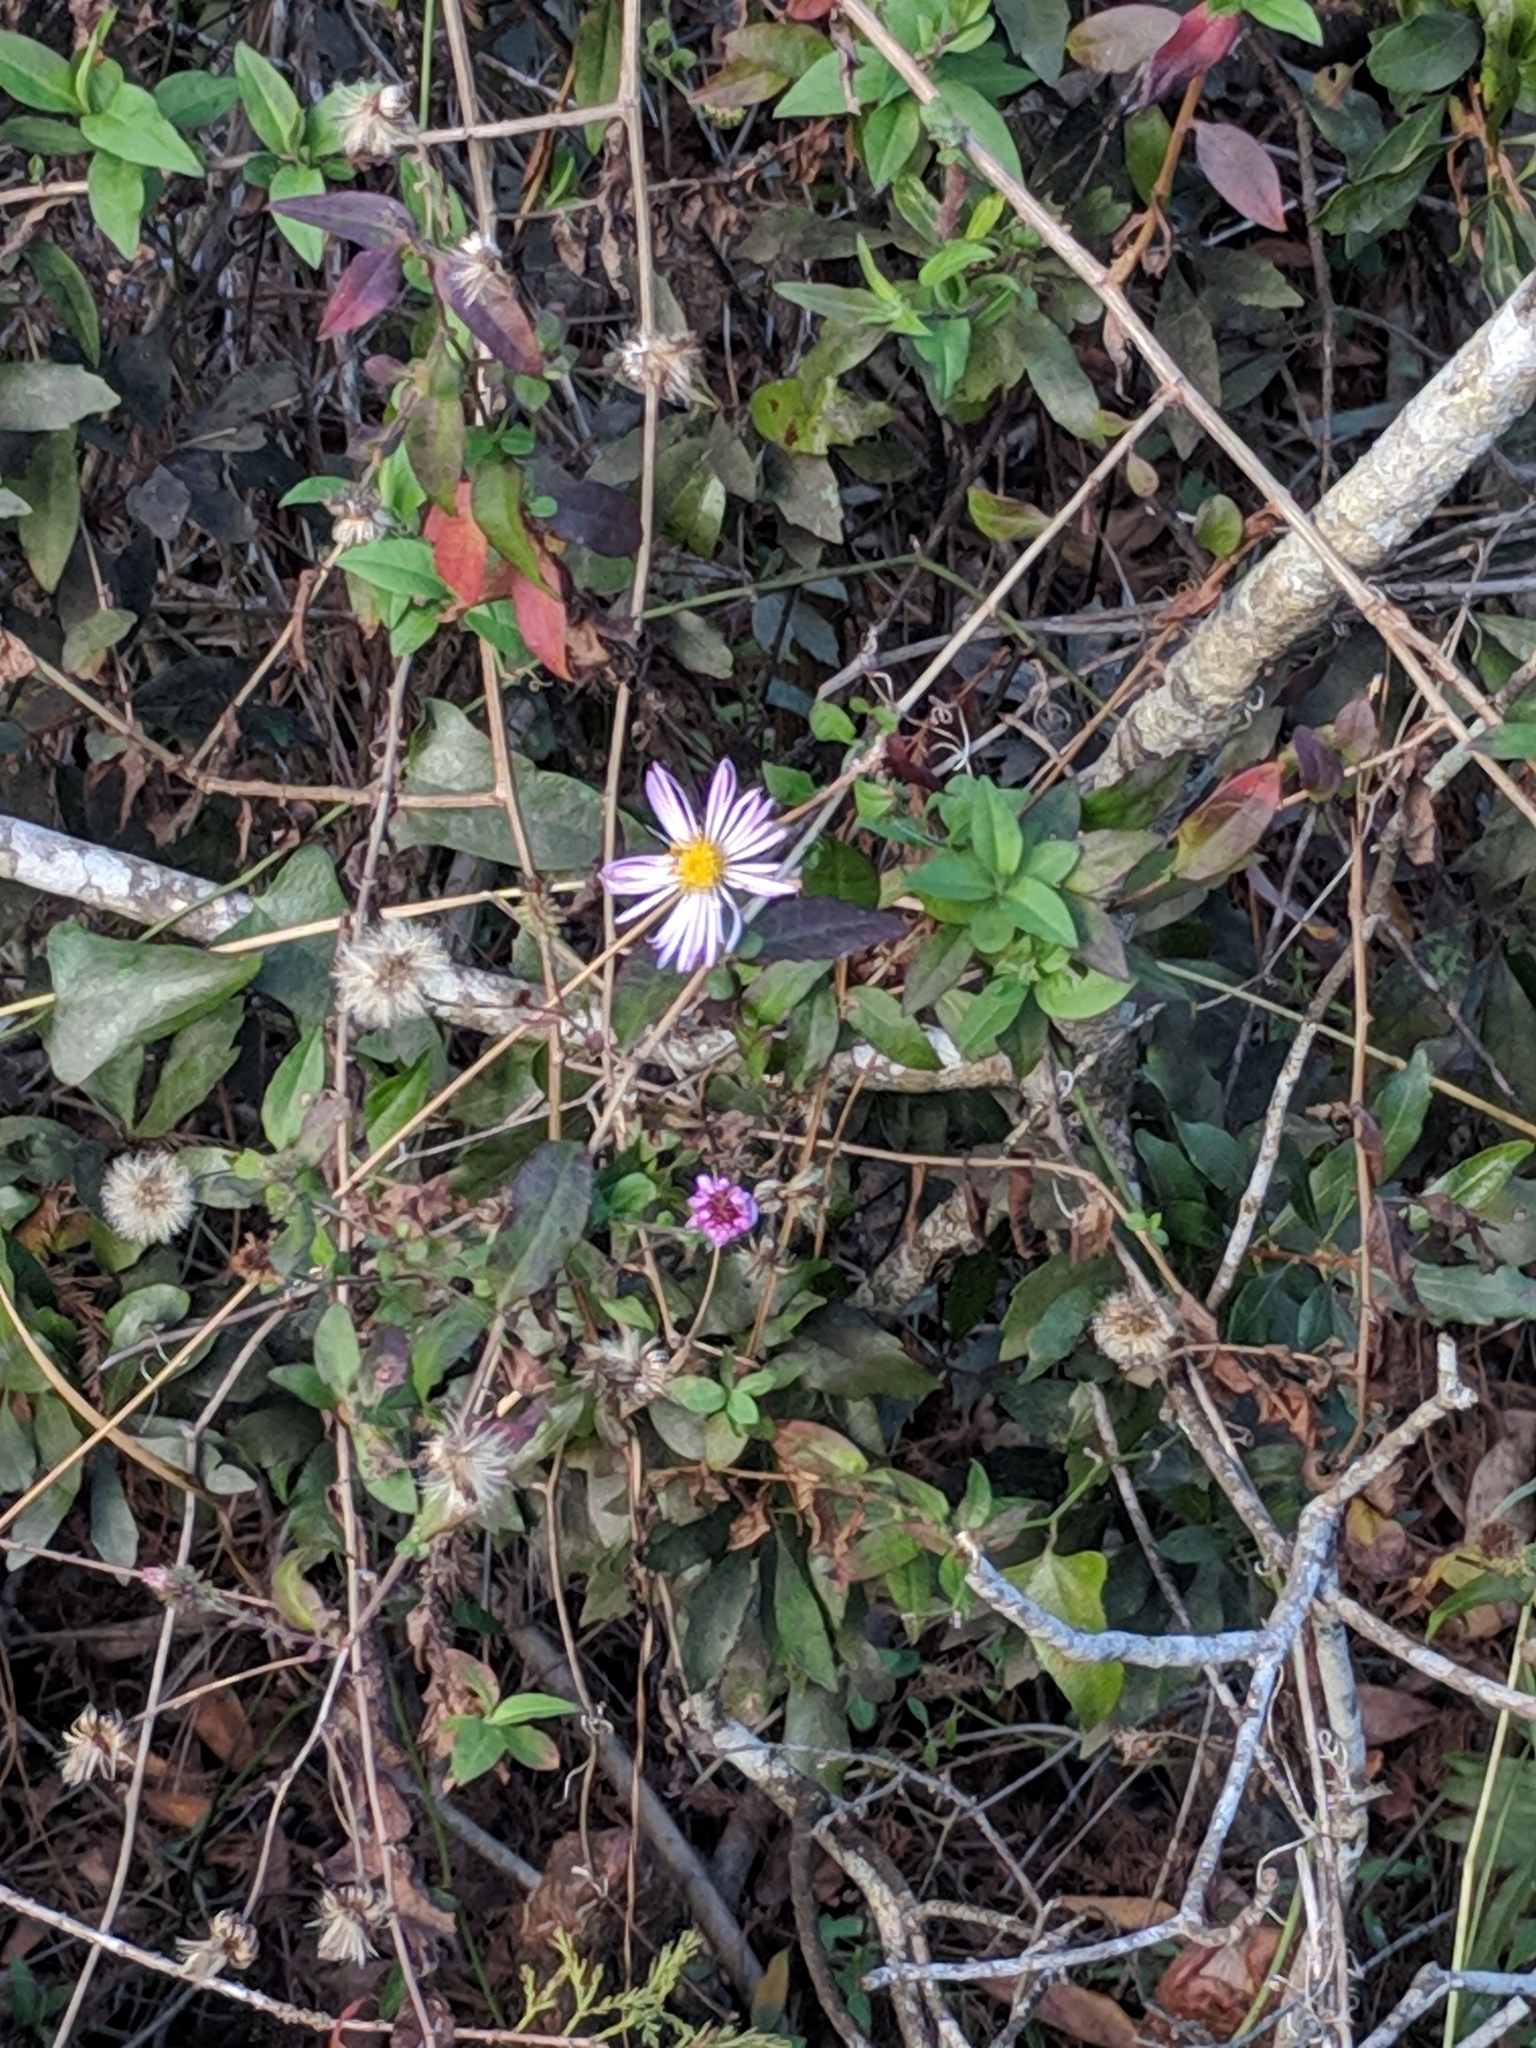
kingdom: Plantae
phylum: Tracheophyta
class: Magnoliopsida
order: Asterales
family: Asteraceae
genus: Ampelaster
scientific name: Ampelaster carolinianus
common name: Climbing aster
